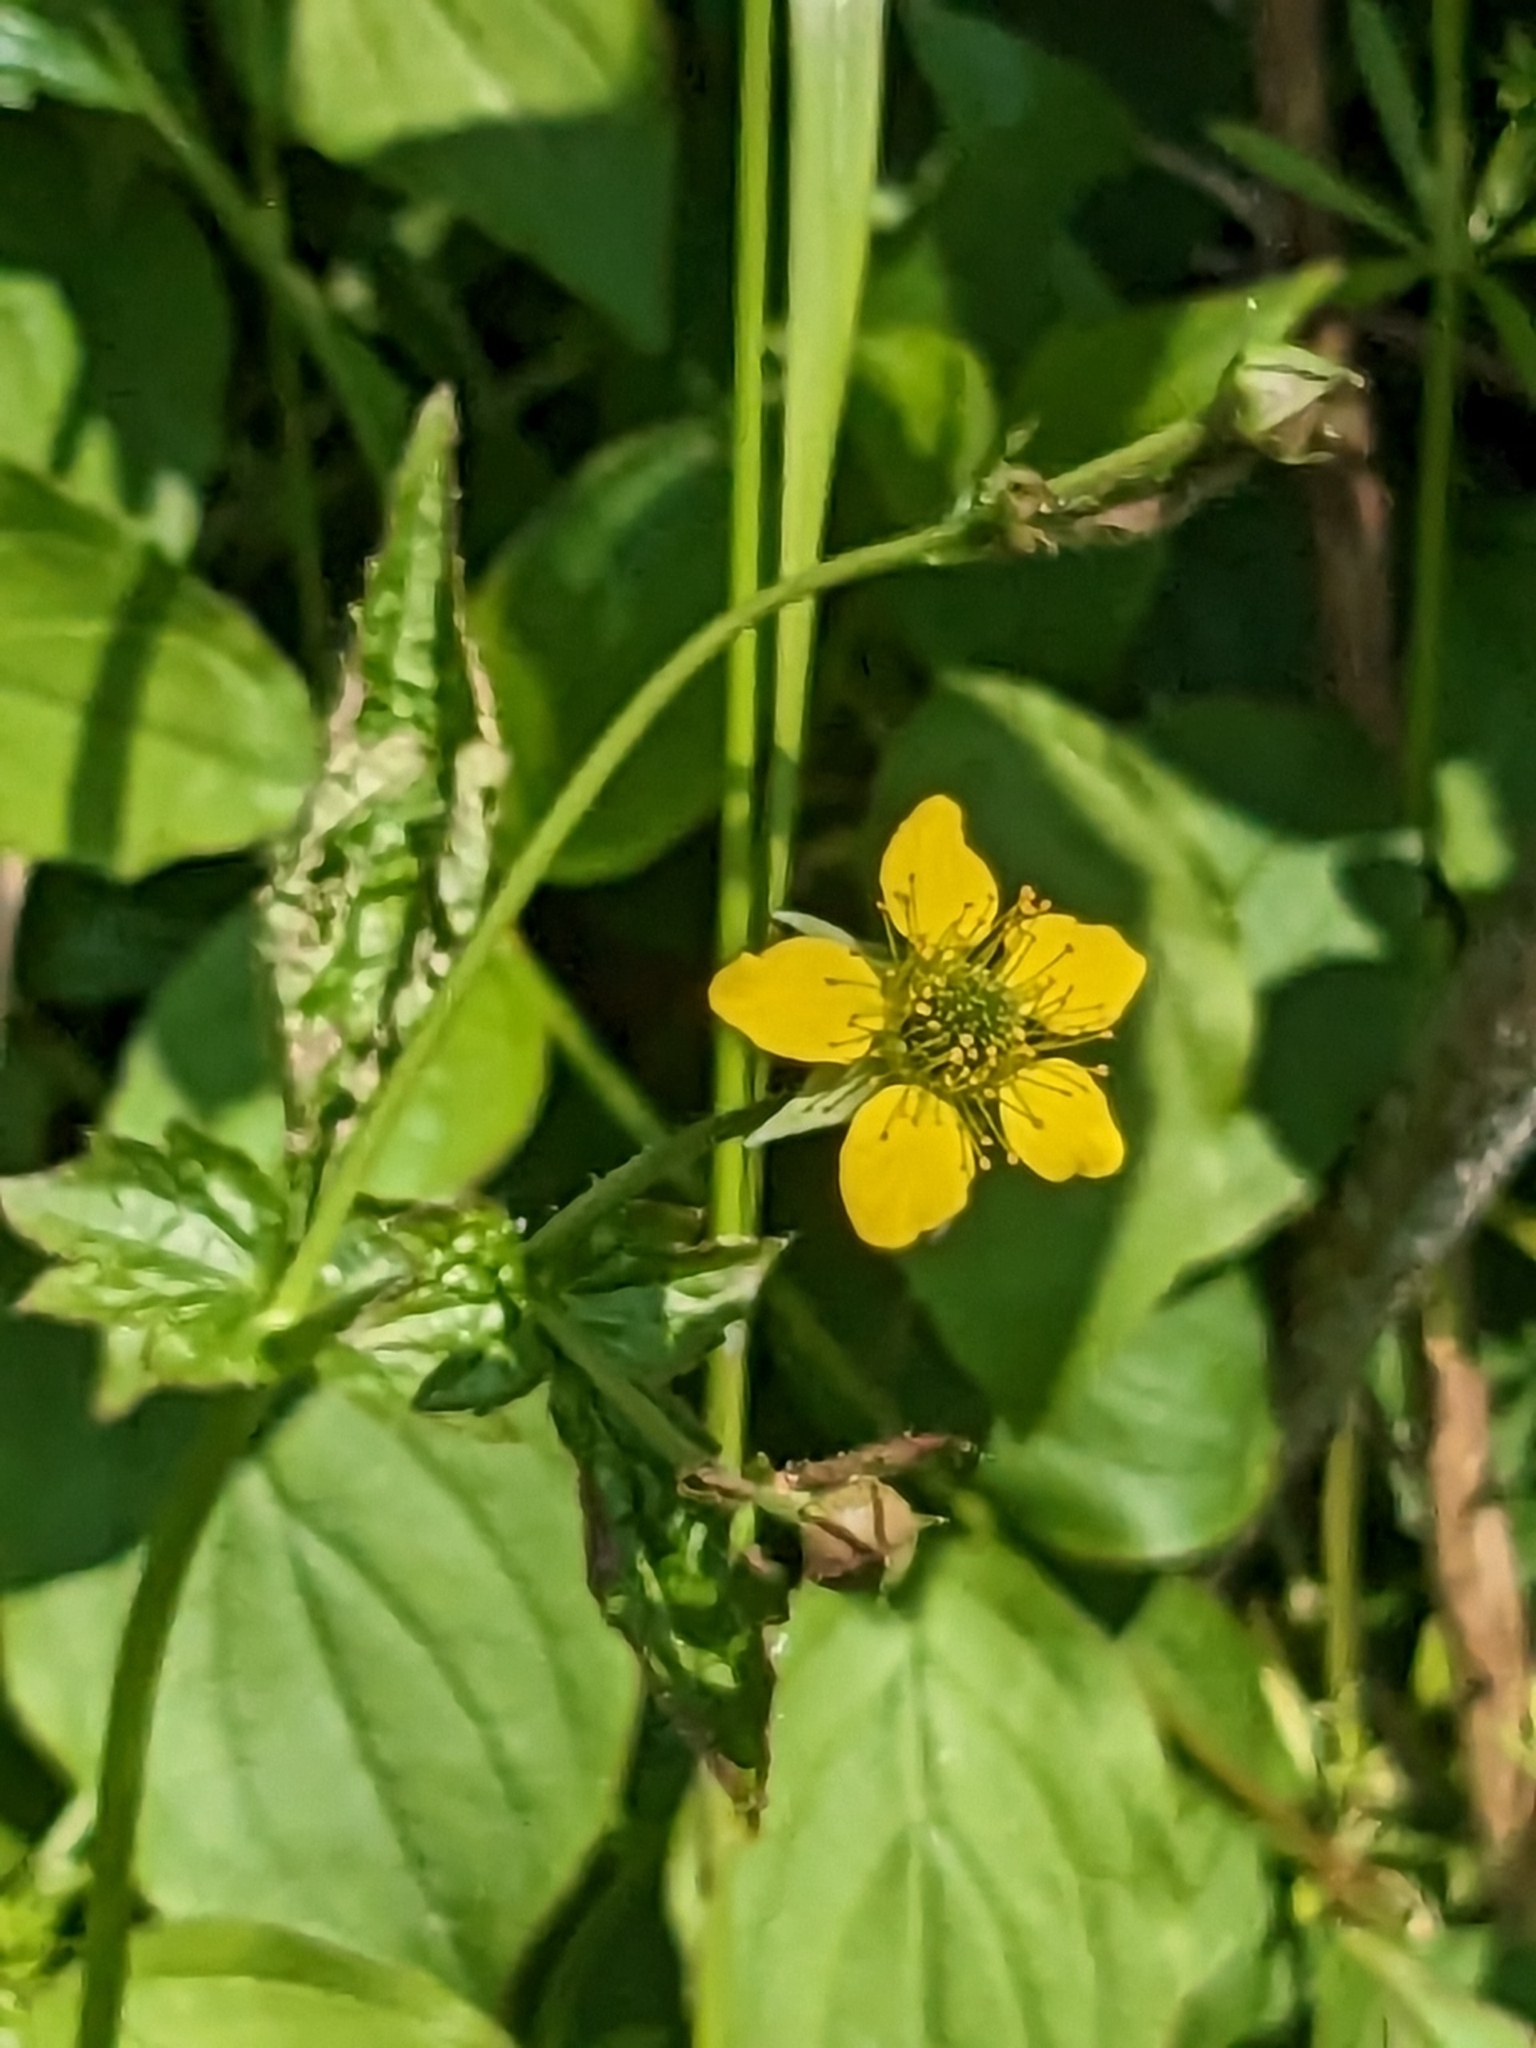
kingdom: Plantae
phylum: Tracheophyta
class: Magnoliopsida
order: Rosales
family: Rosaceae
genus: Geum
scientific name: Geum urbanum
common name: Wood avens
